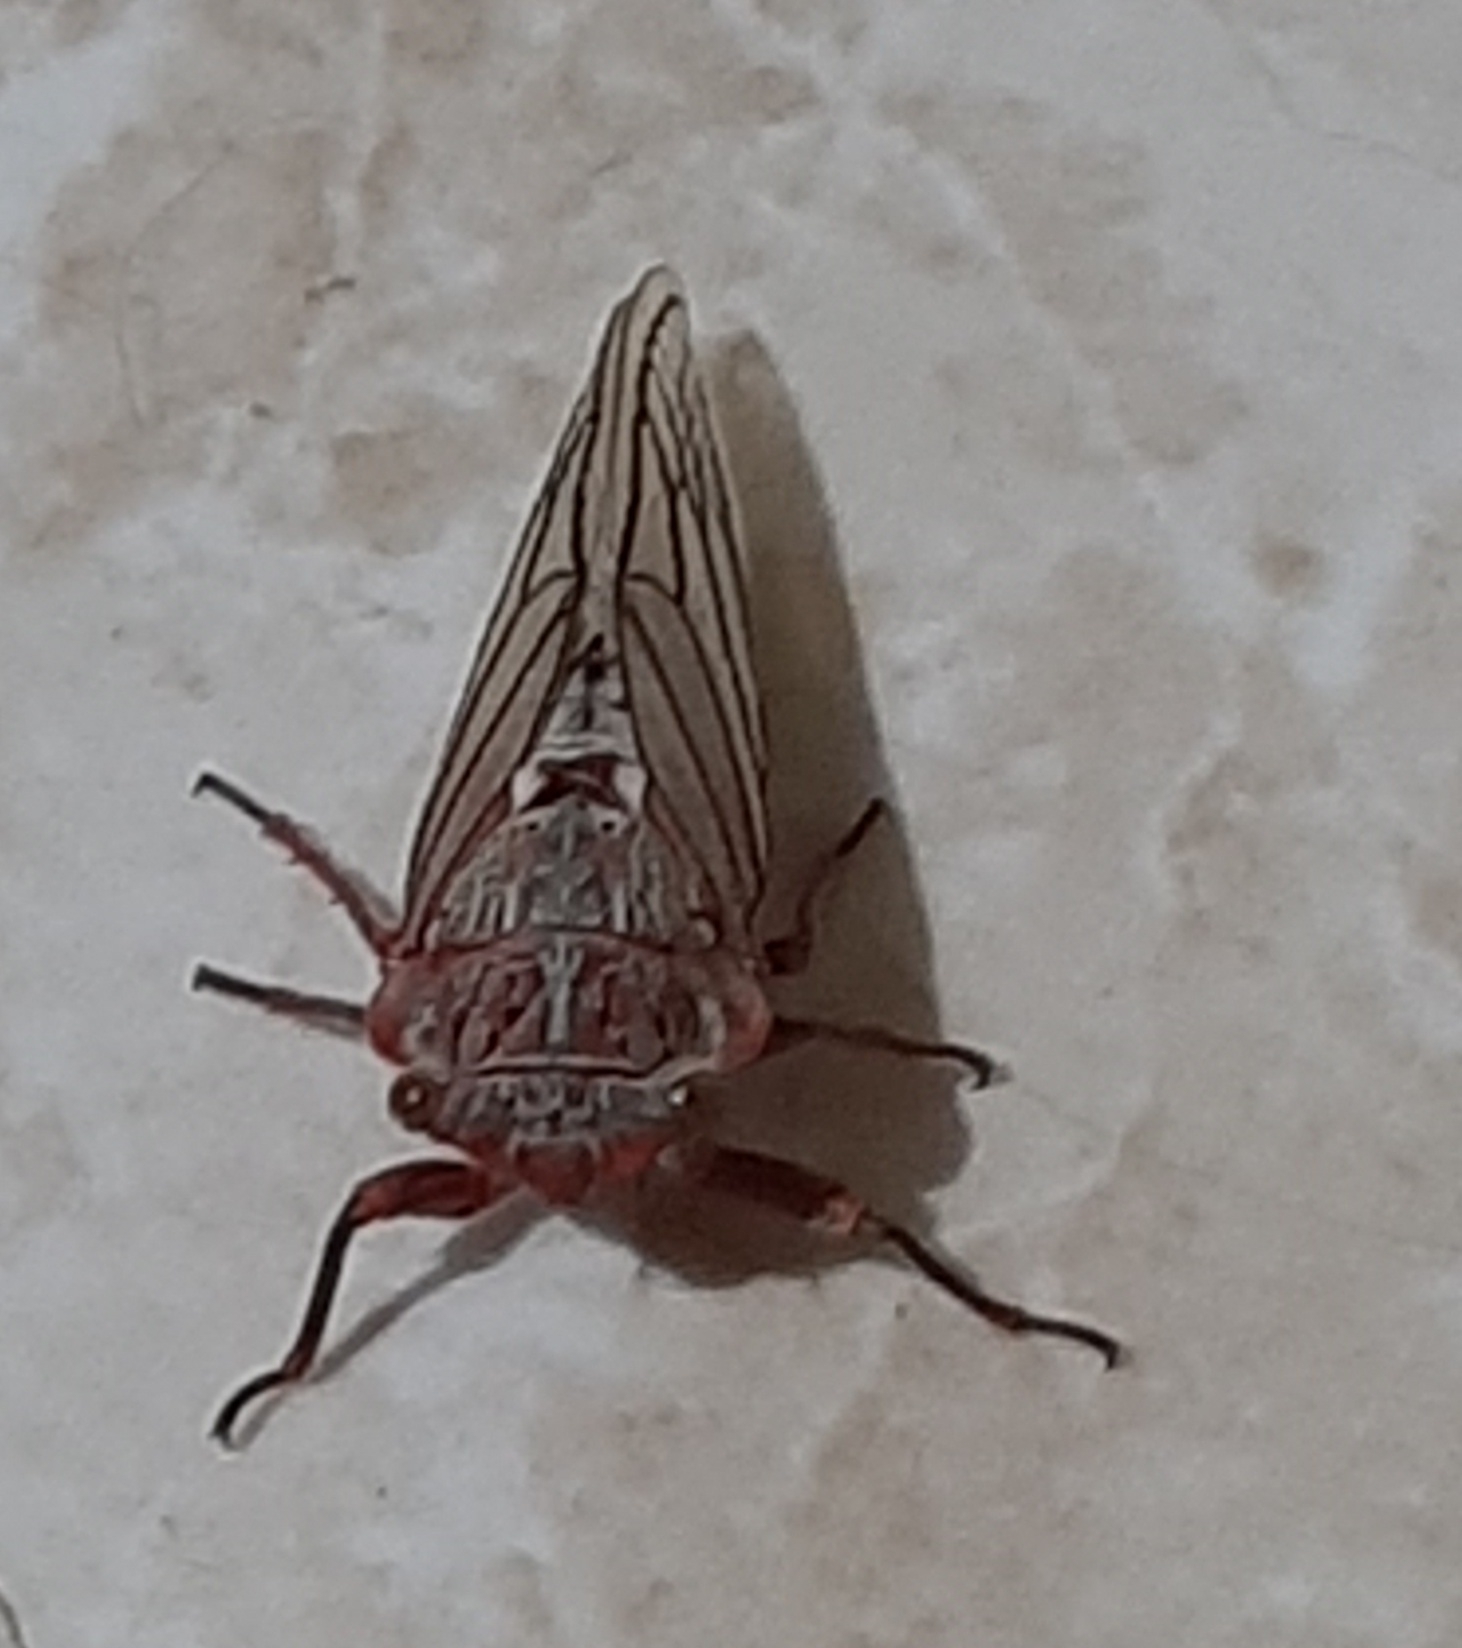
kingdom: Animalia
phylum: Arthropoda
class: Insecta
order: Hemiptera
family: Cicadidae
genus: Calliopsida
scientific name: Calliopsida cinnabarina
